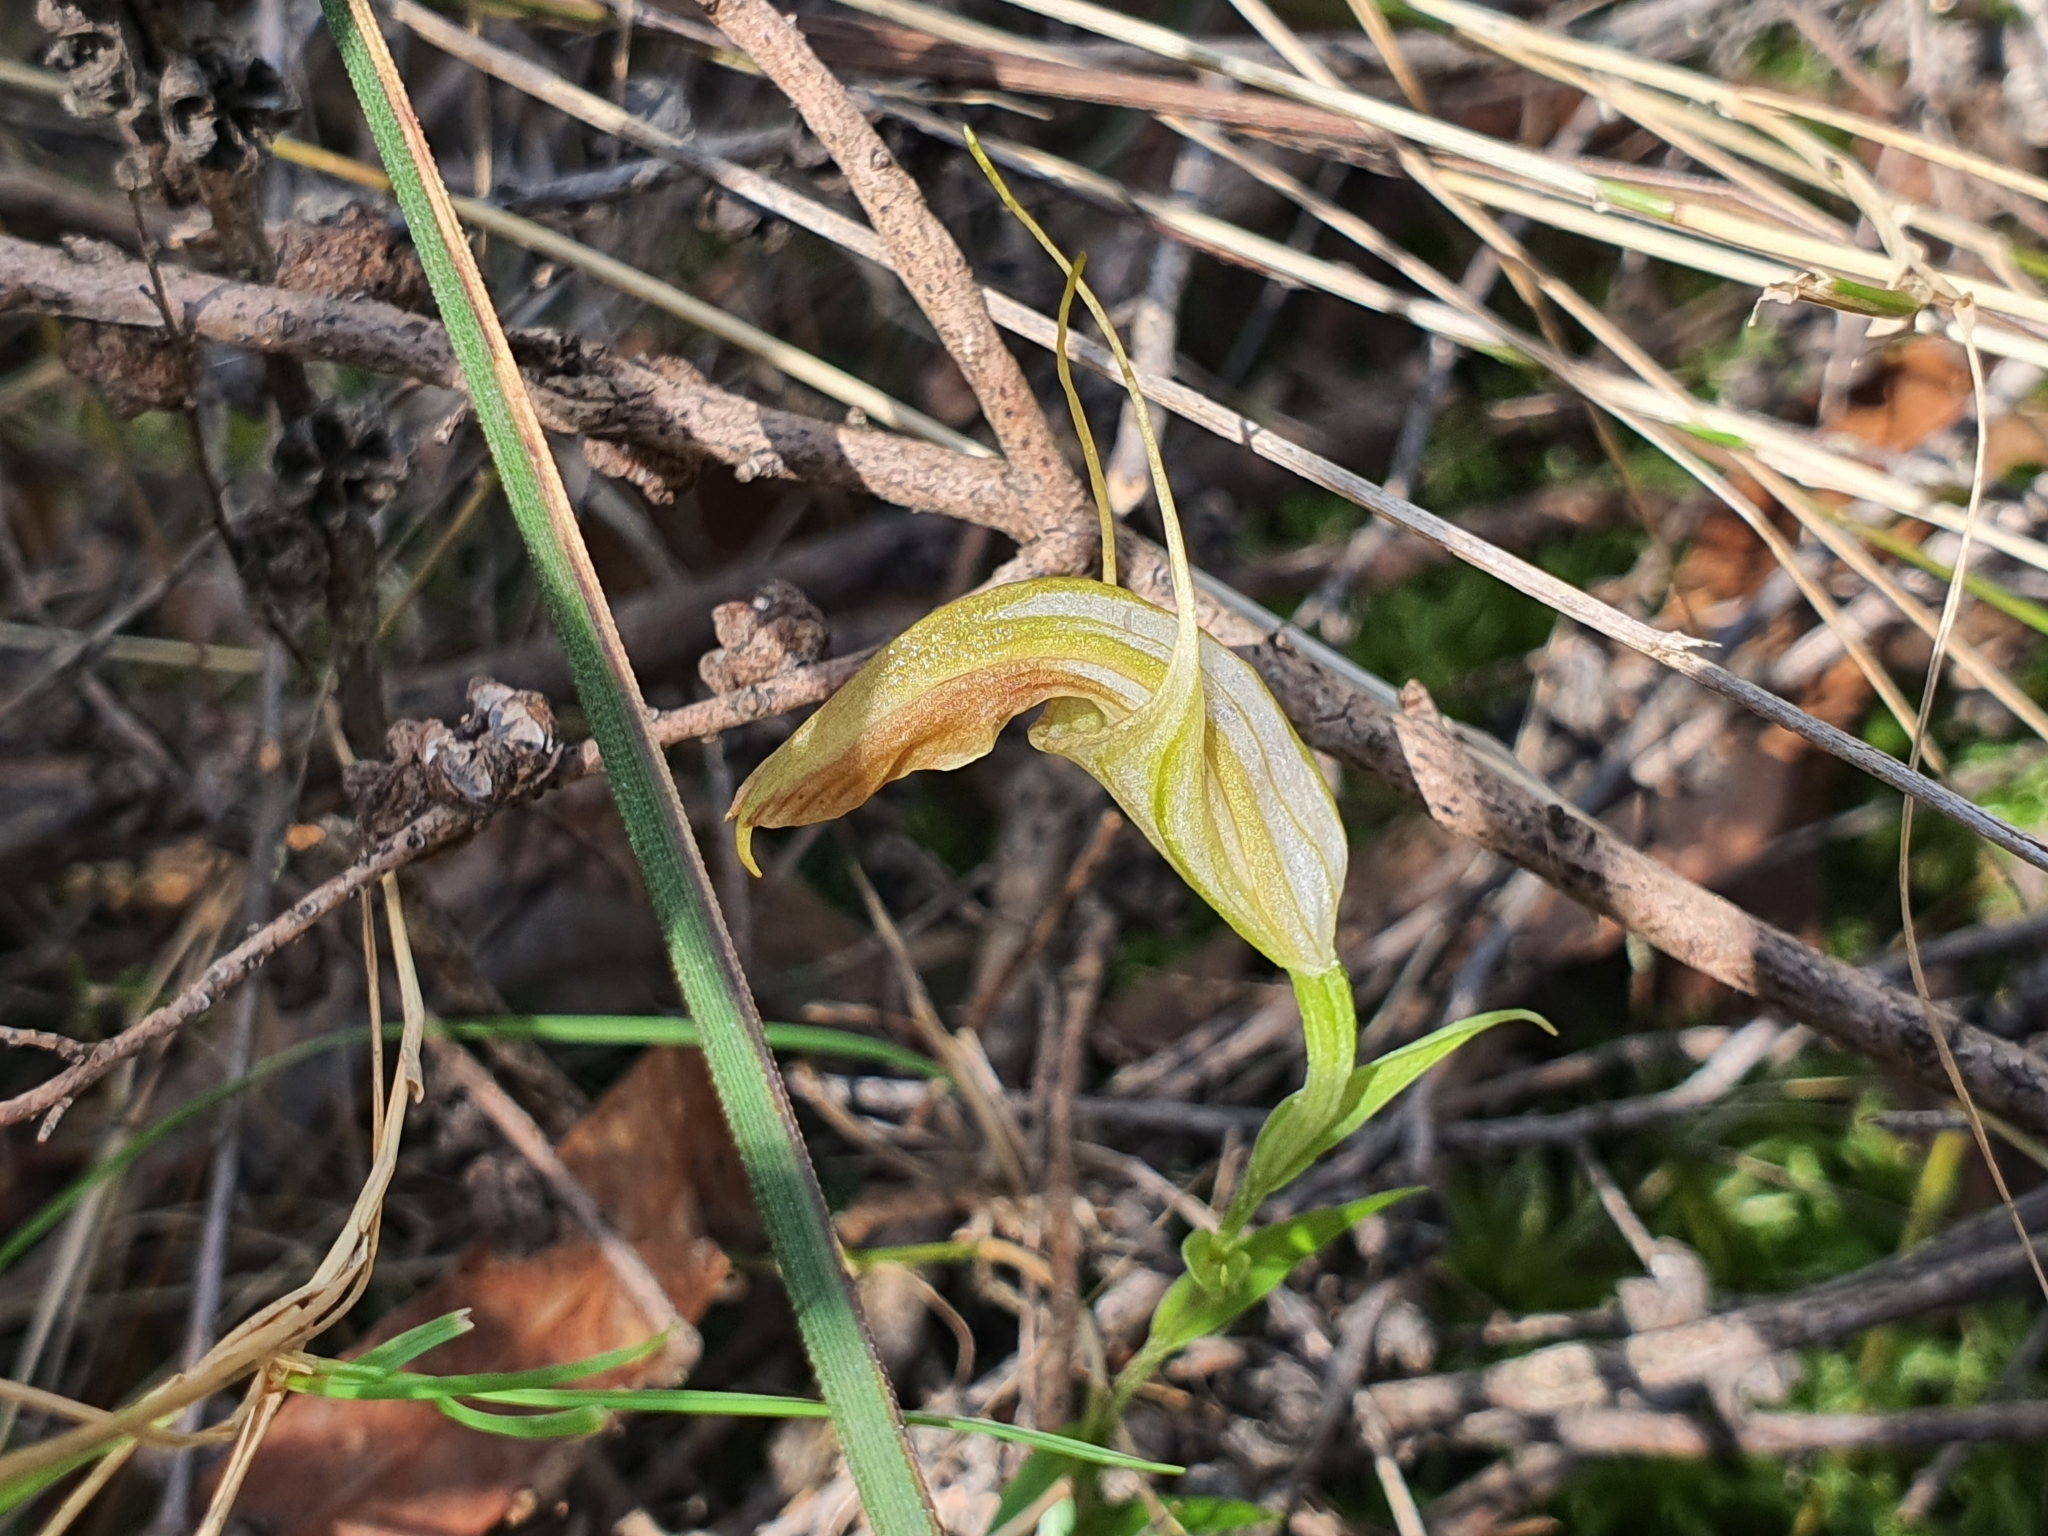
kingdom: Plantae
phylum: Tracheophyta
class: Liliopsida
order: Asparagales
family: Orchidaceae
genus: Pterostylis
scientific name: Pterostylis grandiflora
